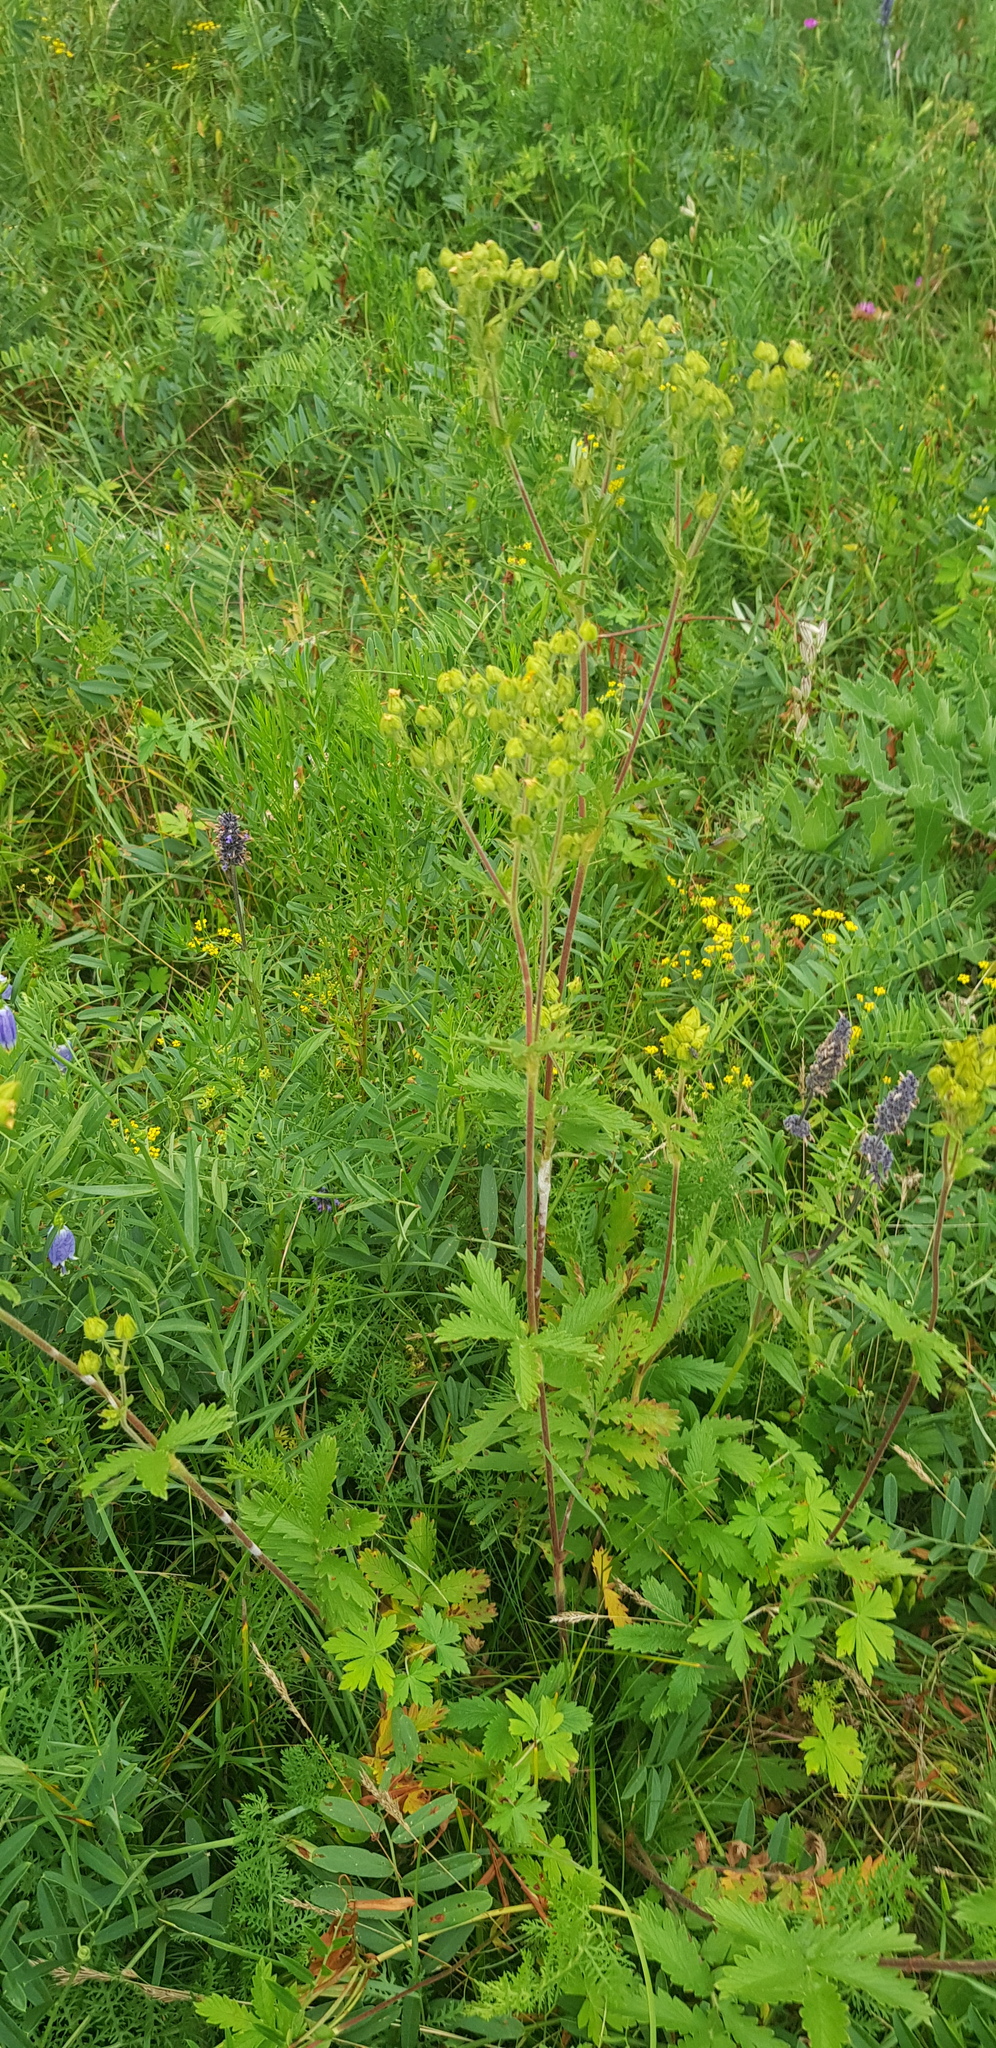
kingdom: Plantae
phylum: Tracheophyta
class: Magnoliopsida
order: Rosales
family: Rosaceae
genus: Potentilla
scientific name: Potentilla tanacetifolia
